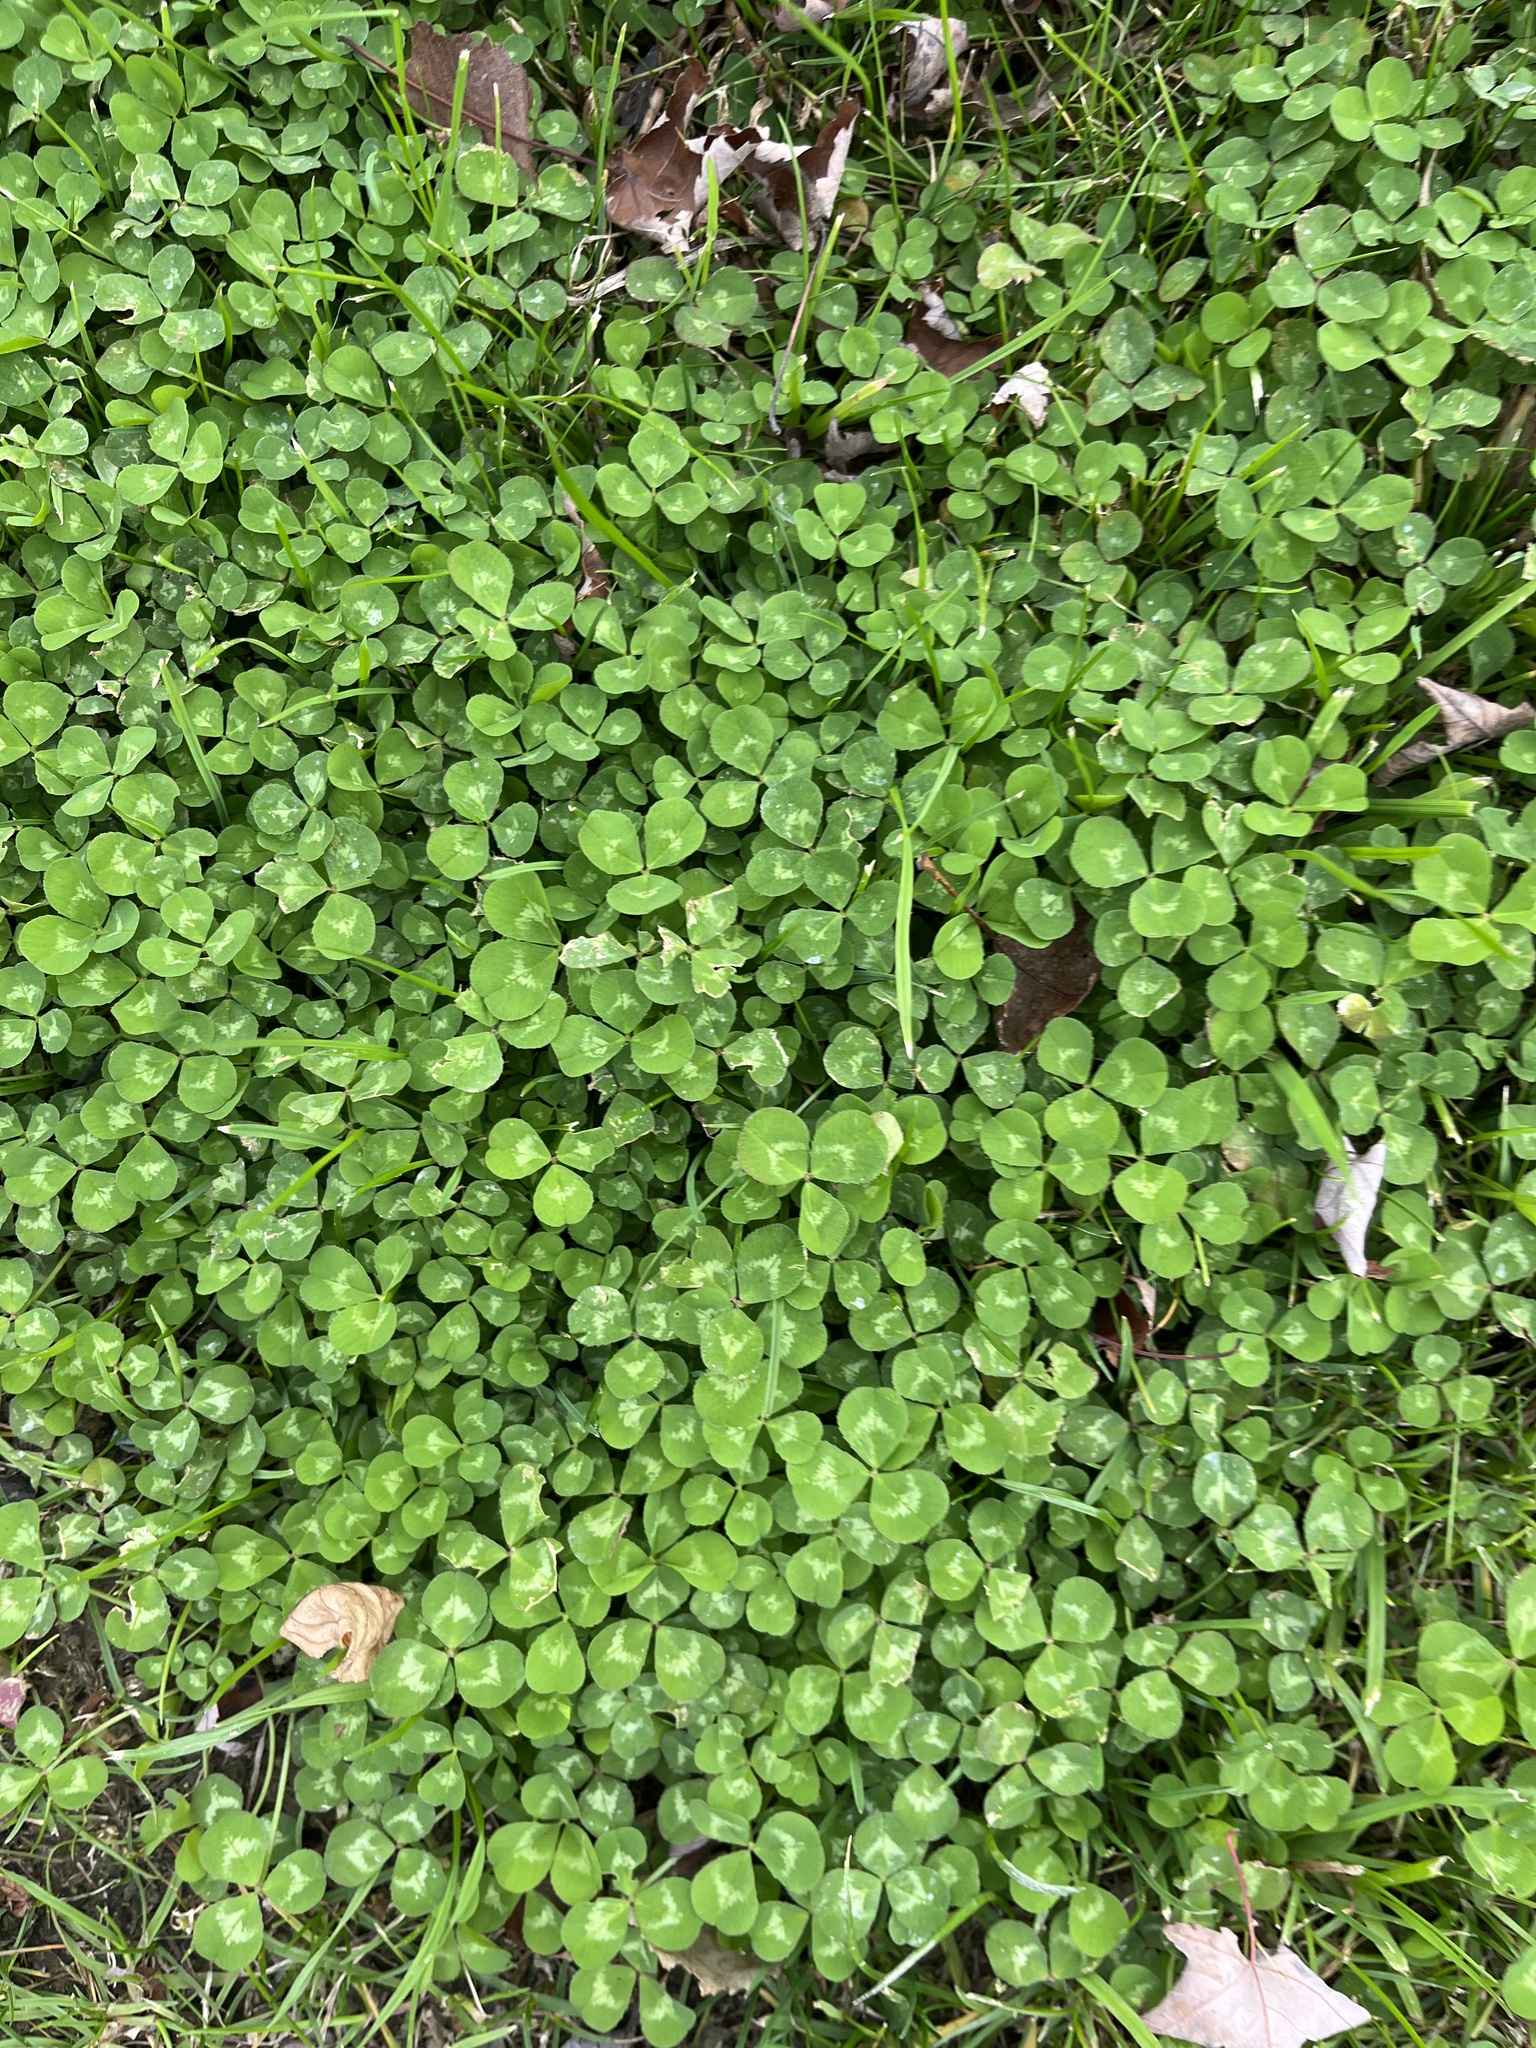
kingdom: Plantae
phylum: Tracheophyta
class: Magnoliopsida
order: Fabales
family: Fabaceae
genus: Trifolium
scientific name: Trifolium repens
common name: White clover
